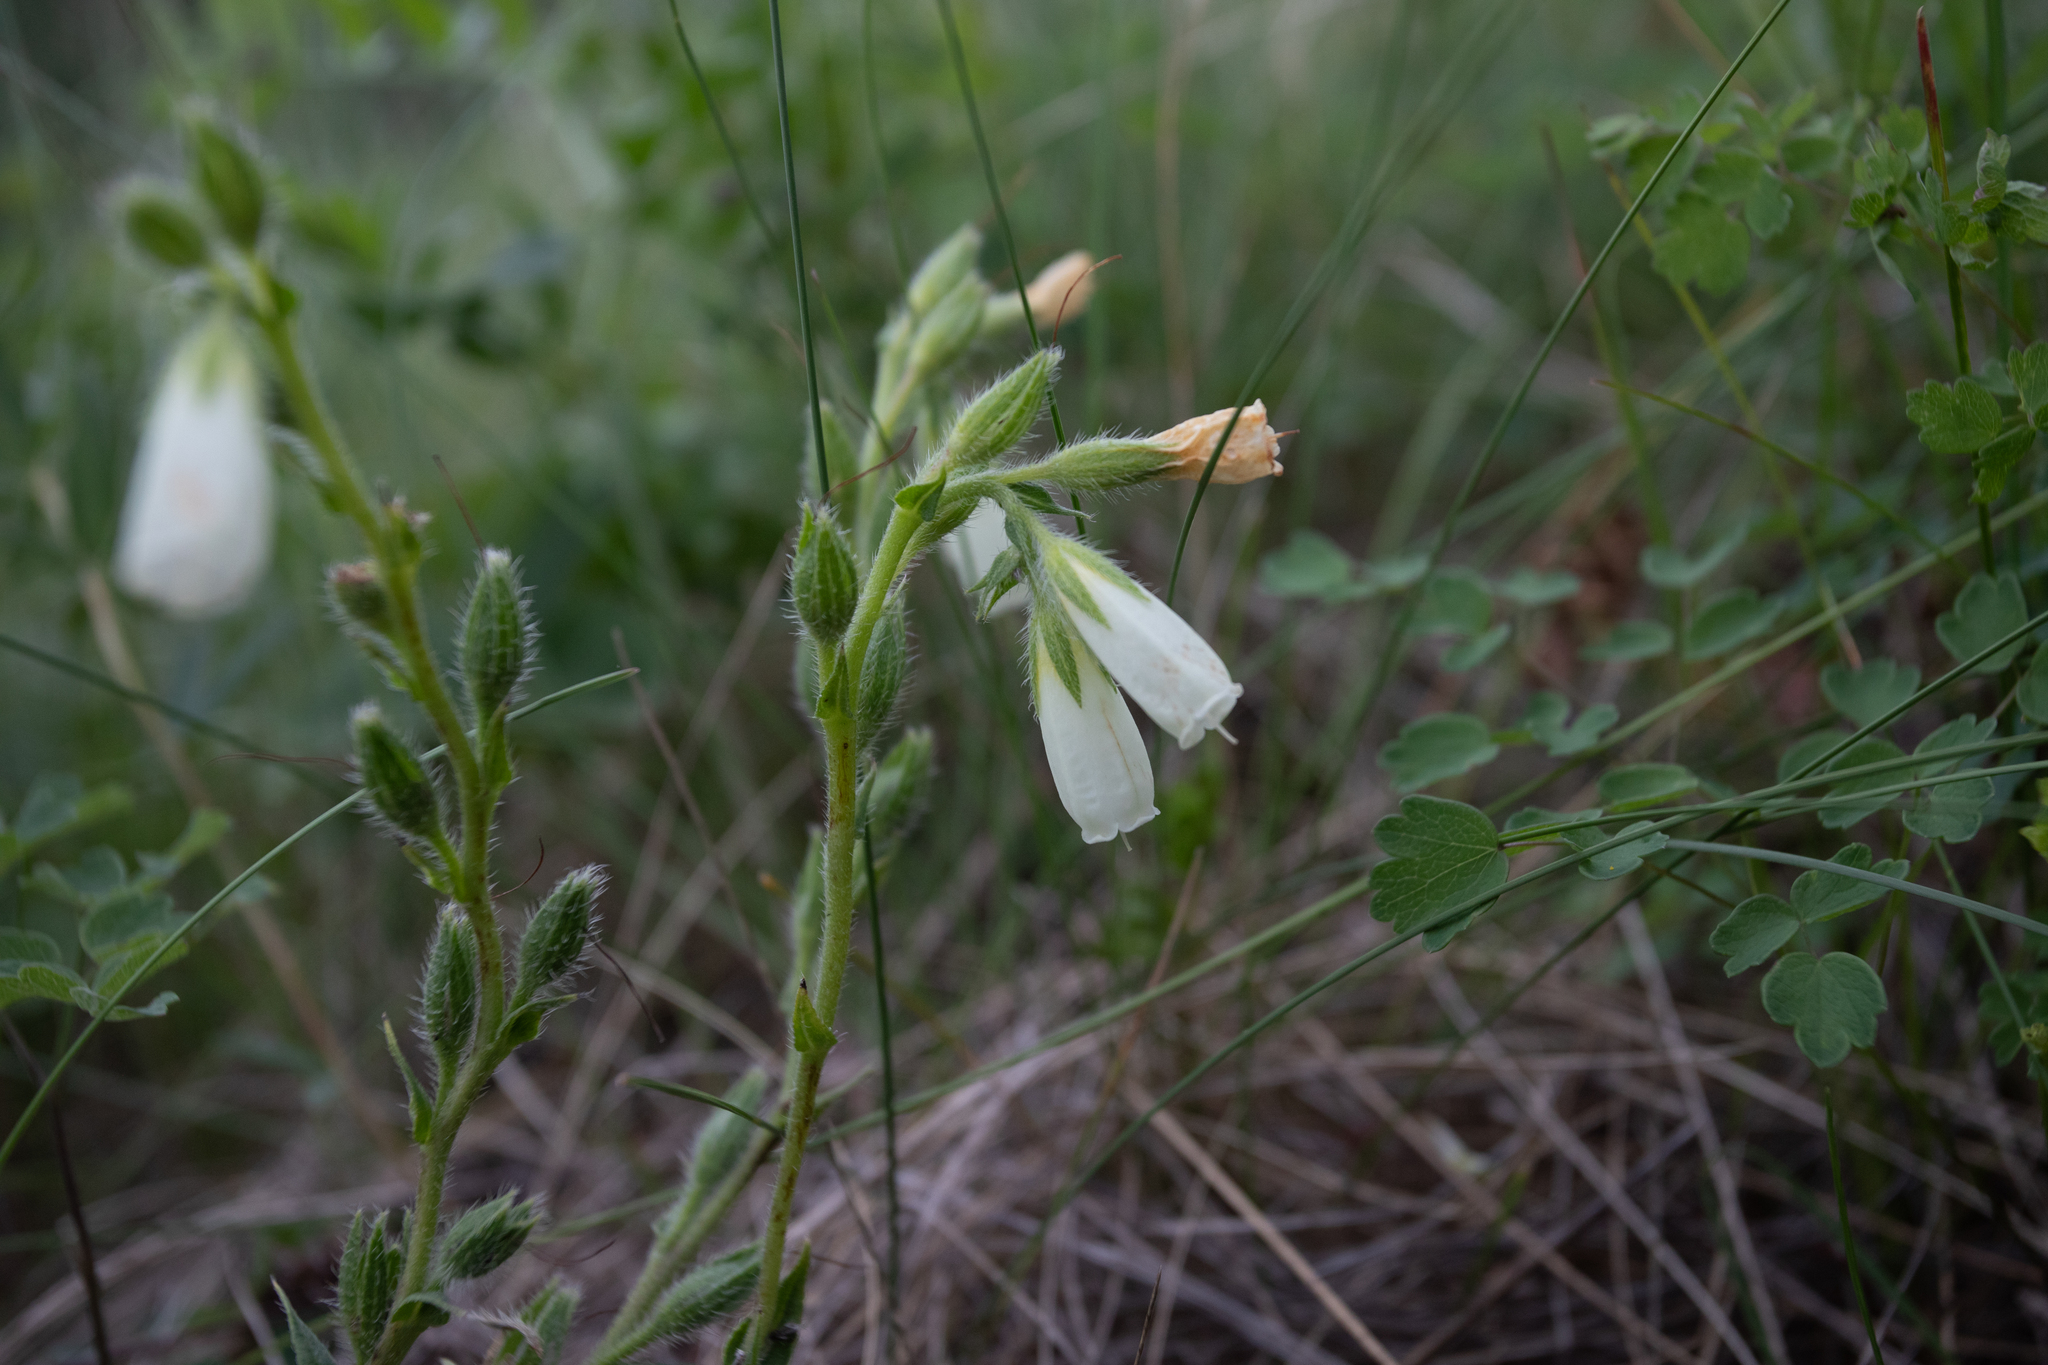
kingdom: Plantae
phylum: Tracheophyta
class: Magnoliopsida
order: Boraginales
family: Boraginaceae
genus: Onosma
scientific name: Onosma simplicissima
